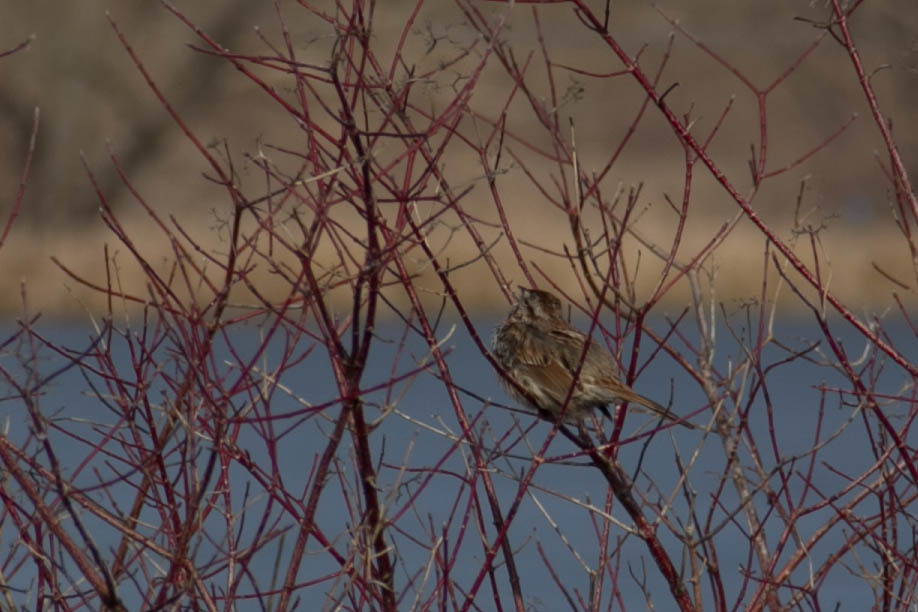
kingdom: Animalia
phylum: Chordata
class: Aves
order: Passeriformes
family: Passerellidae
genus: Melospiza
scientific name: Melospiza melodia
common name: Song sparrow
